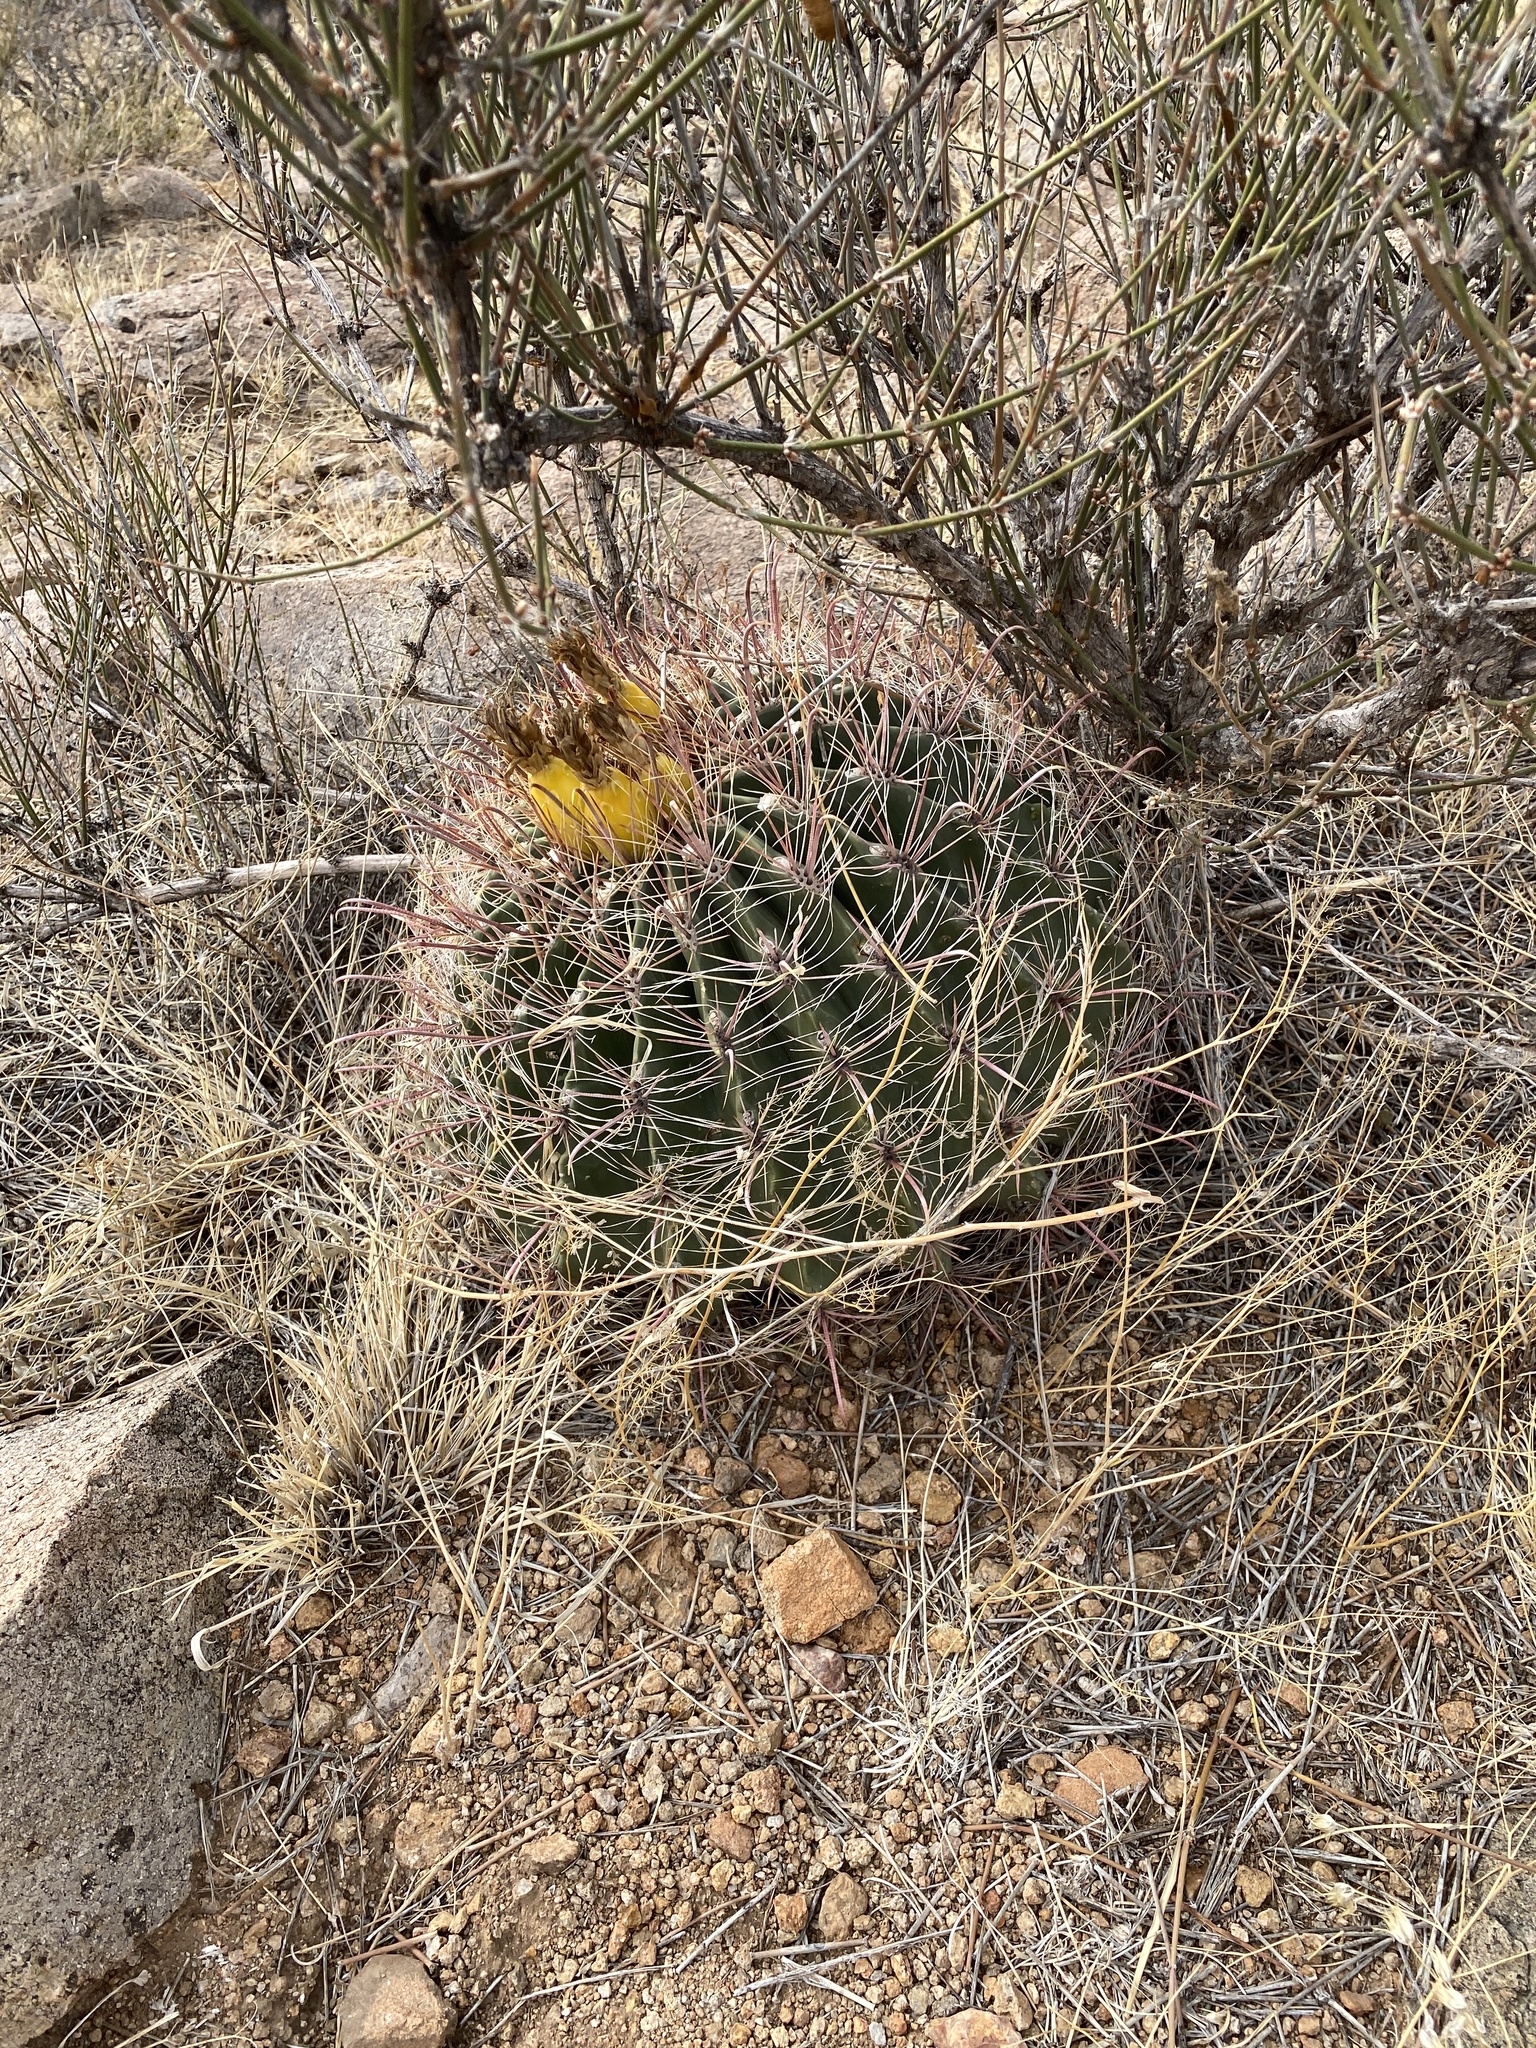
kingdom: Plantae
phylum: Tracheophyta
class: Magnoliopsida
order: Caryophyllales
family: Cactaceae
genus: Ferocactus
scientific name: Ferocactus wislizeni
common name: Candy barrel cactus
